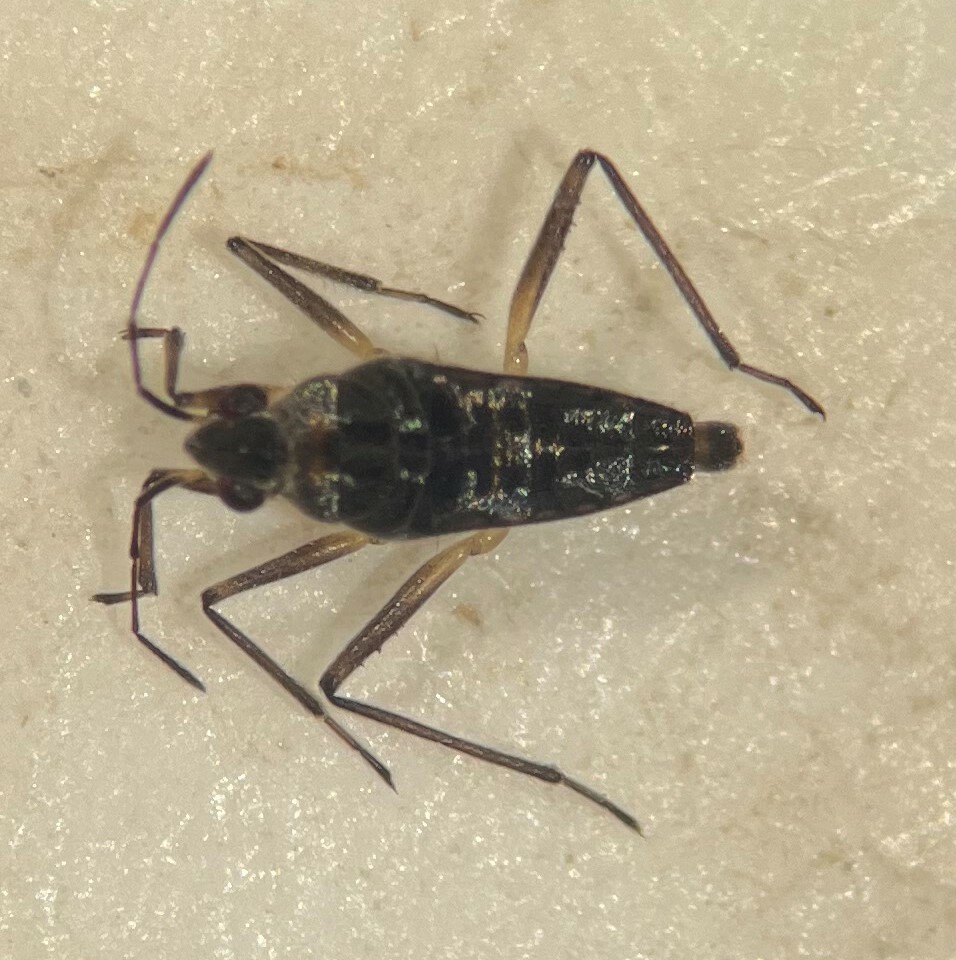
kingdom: Animalia
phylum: Arthropoda
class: Insecta
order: Hemiptera
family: Veliidae
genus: Microvelia
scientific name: Microvelia paludicola
